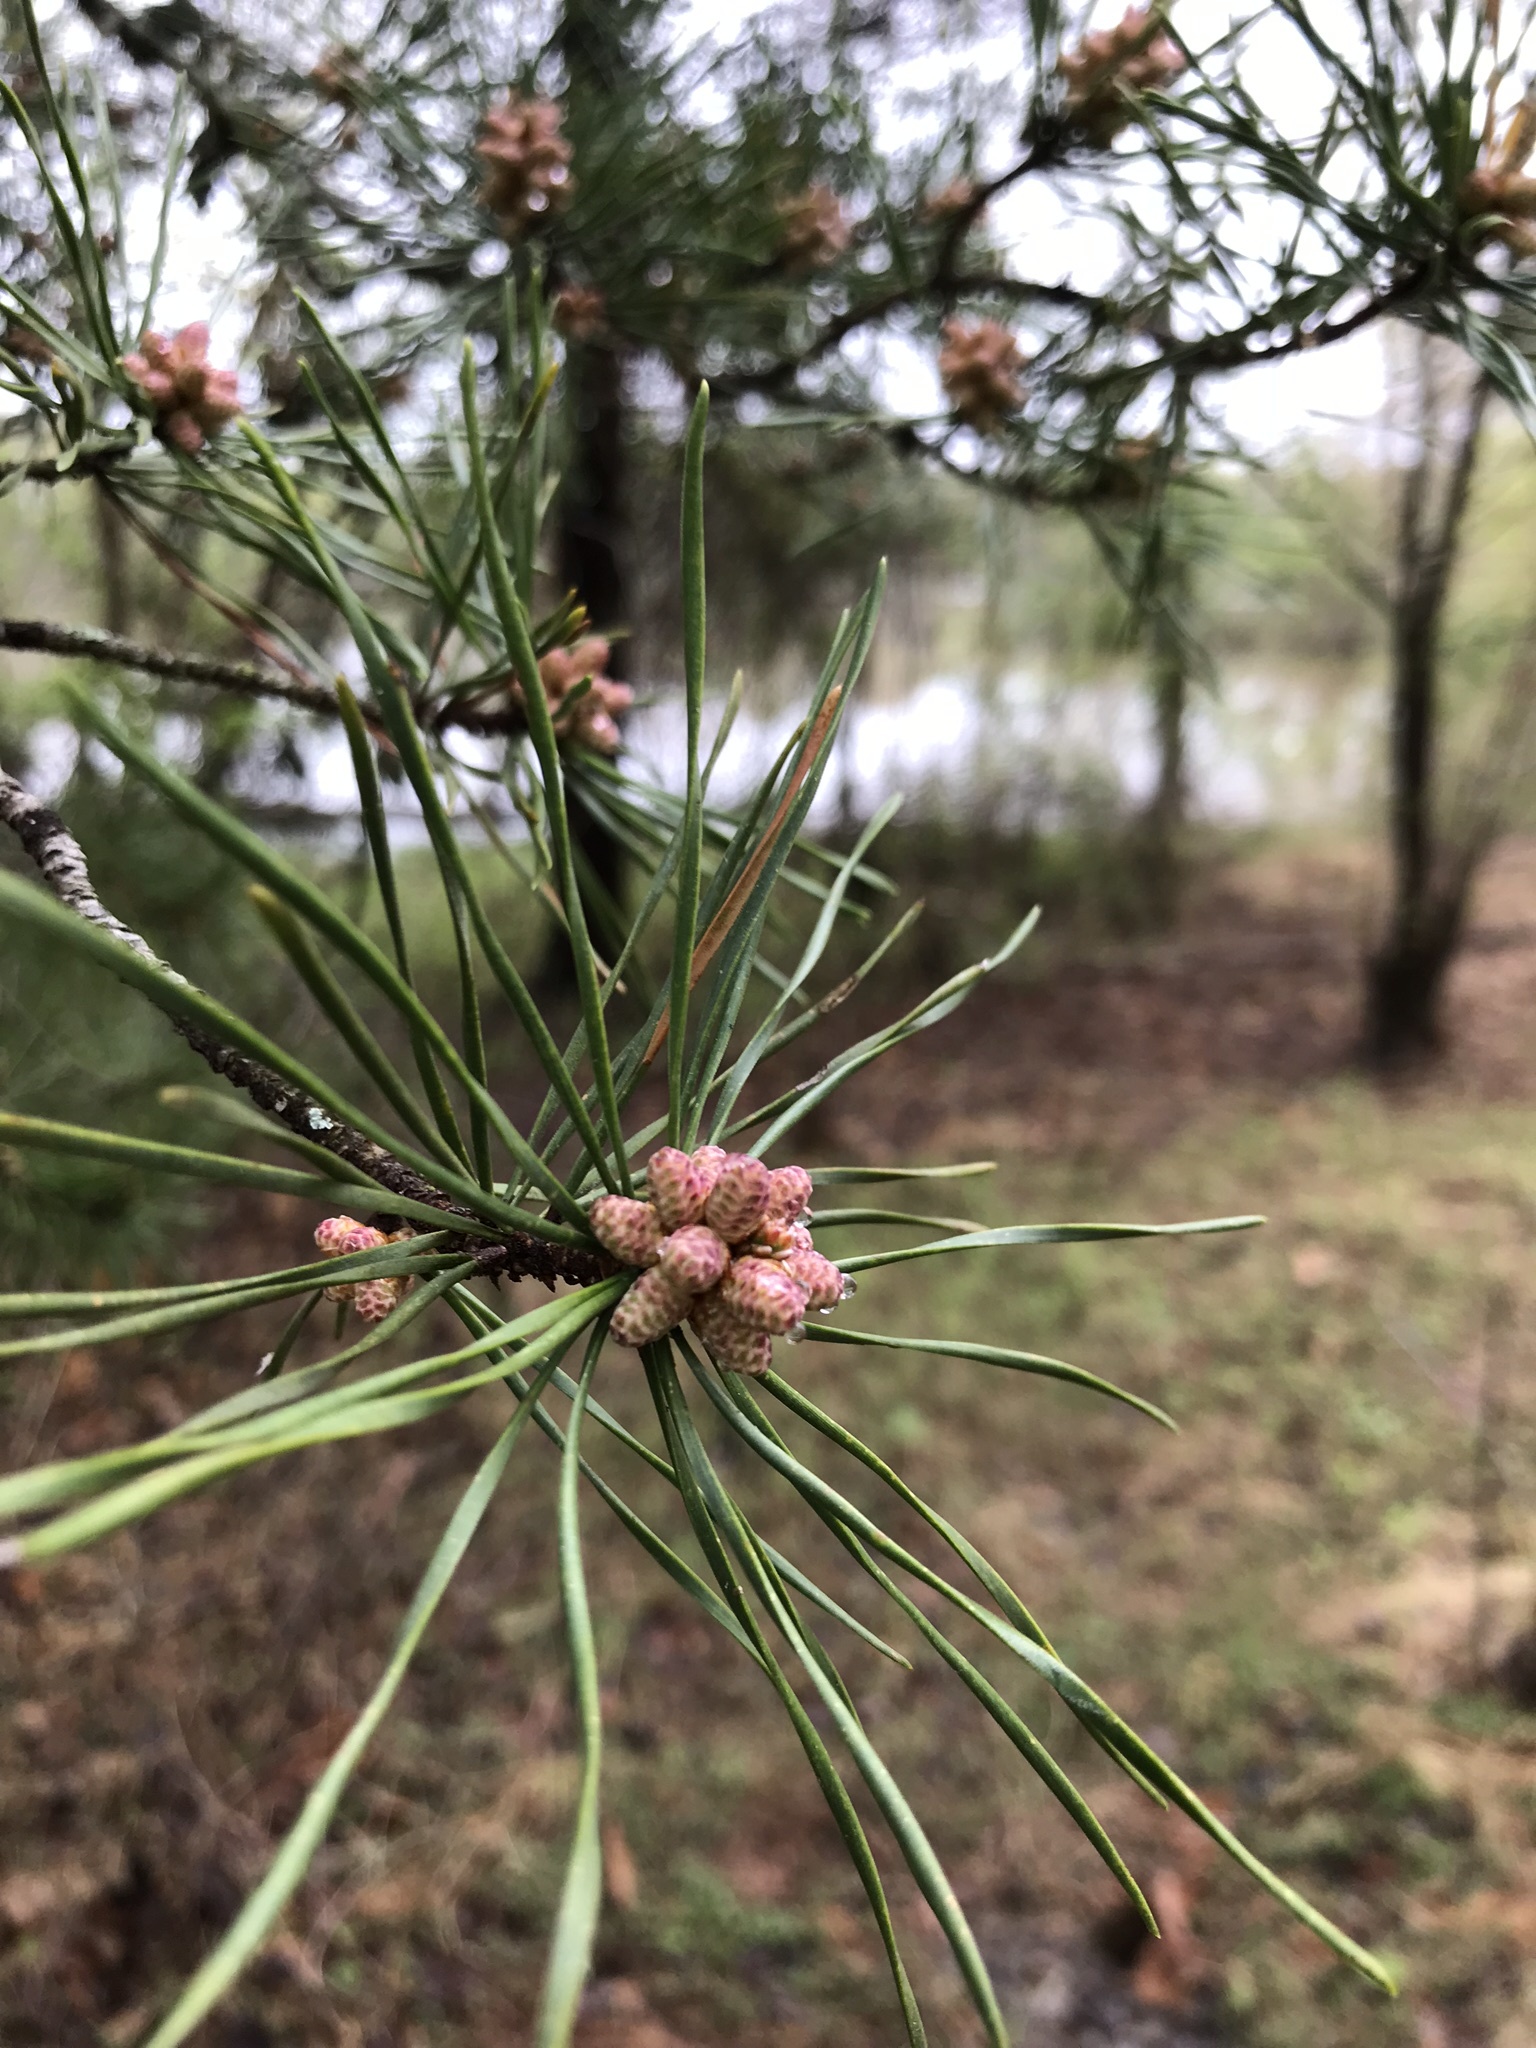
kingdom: Plantae
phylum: Tracheophyta
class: Pinopsida
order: Pinales
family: Pinaceae
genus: Pinus
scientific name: Pinus virginiana
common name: Scrub pine
